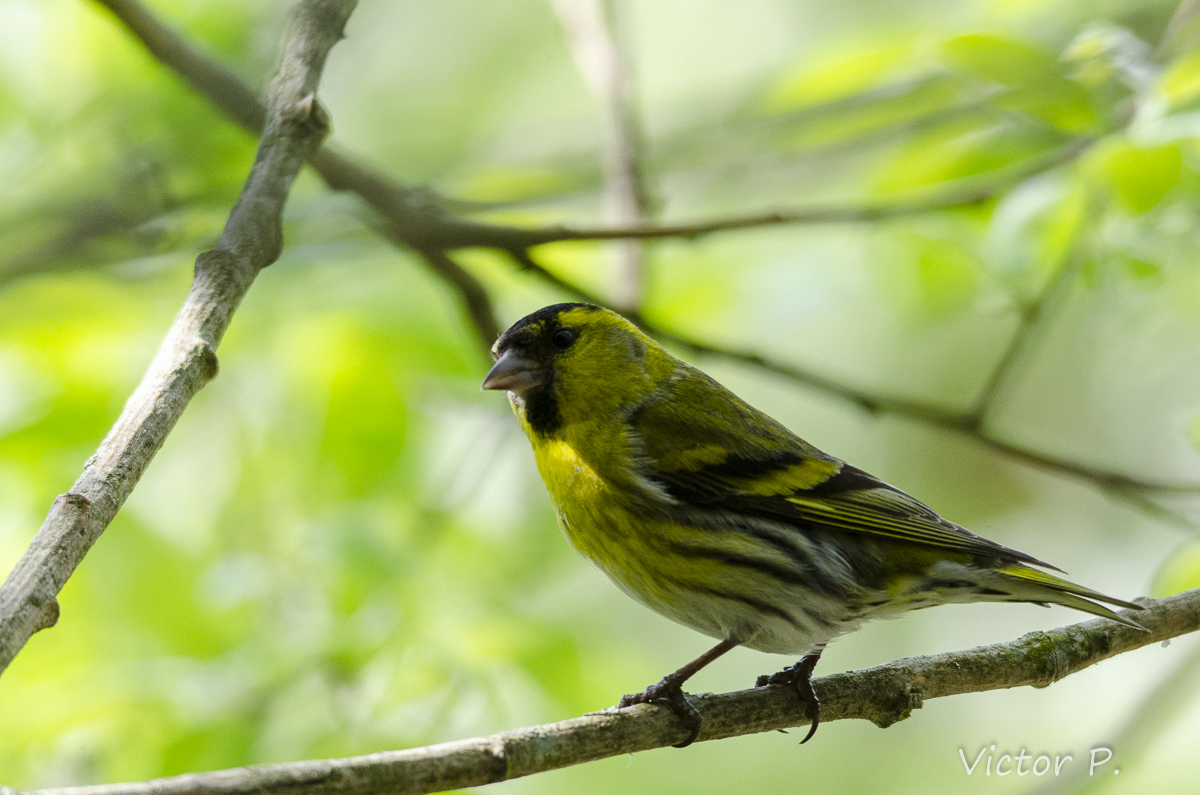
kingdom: Animalia
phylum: Chordata
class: Aves
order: Passeriformes
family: Fringillidae
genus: Spinus
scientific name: Spinus spinus
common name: Eurasian siskin
